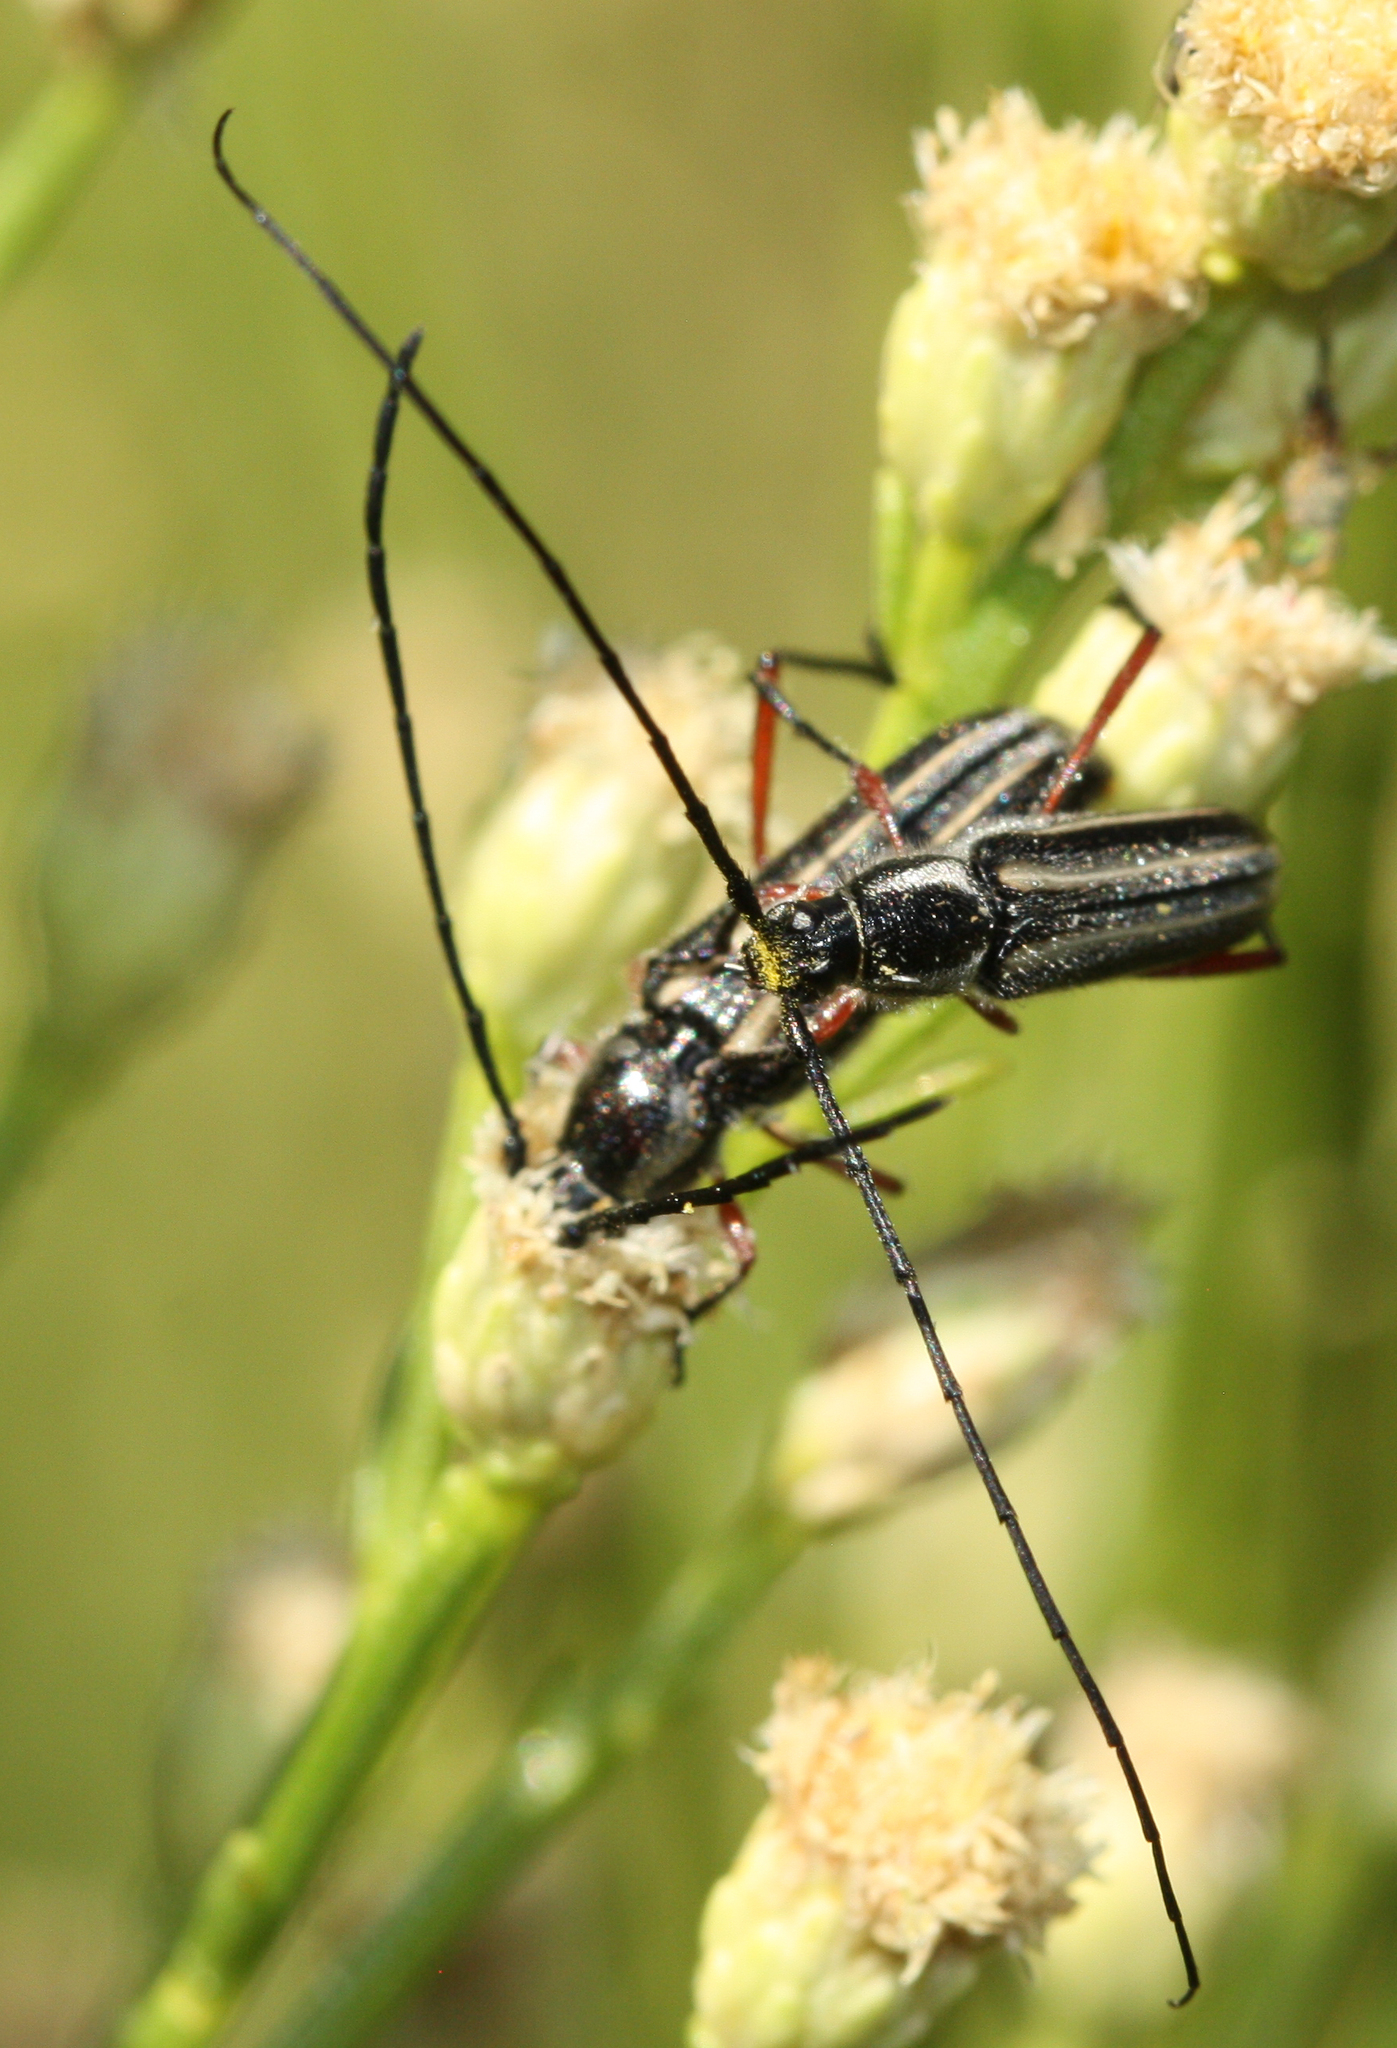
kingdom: Animalia
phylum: Arthropoda
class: Insecta
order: Coleoptera
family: Cerambycidae
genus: Sphaenothecus
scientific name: Sphaenothecus bilineatus
